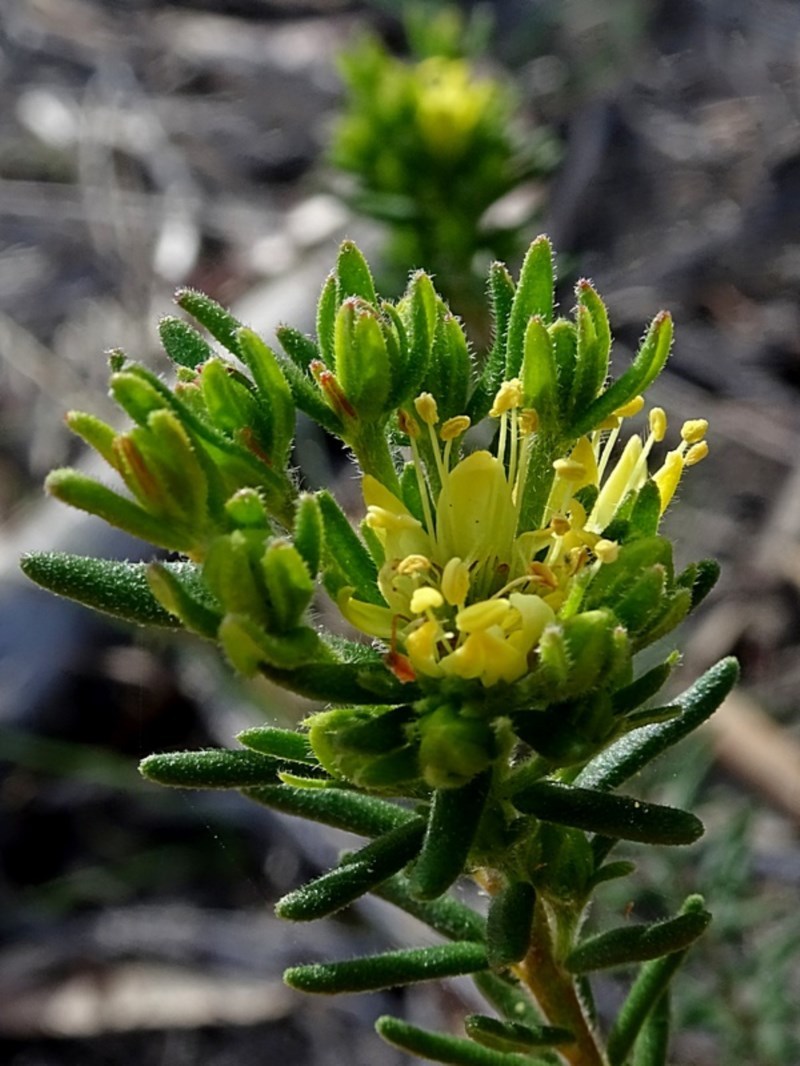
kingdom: Plantae
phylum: Tracheophyta
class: Magnoliopsida
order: Sapindales
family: Rutaceae
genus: Leionema
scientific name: Leionema diosmeum
